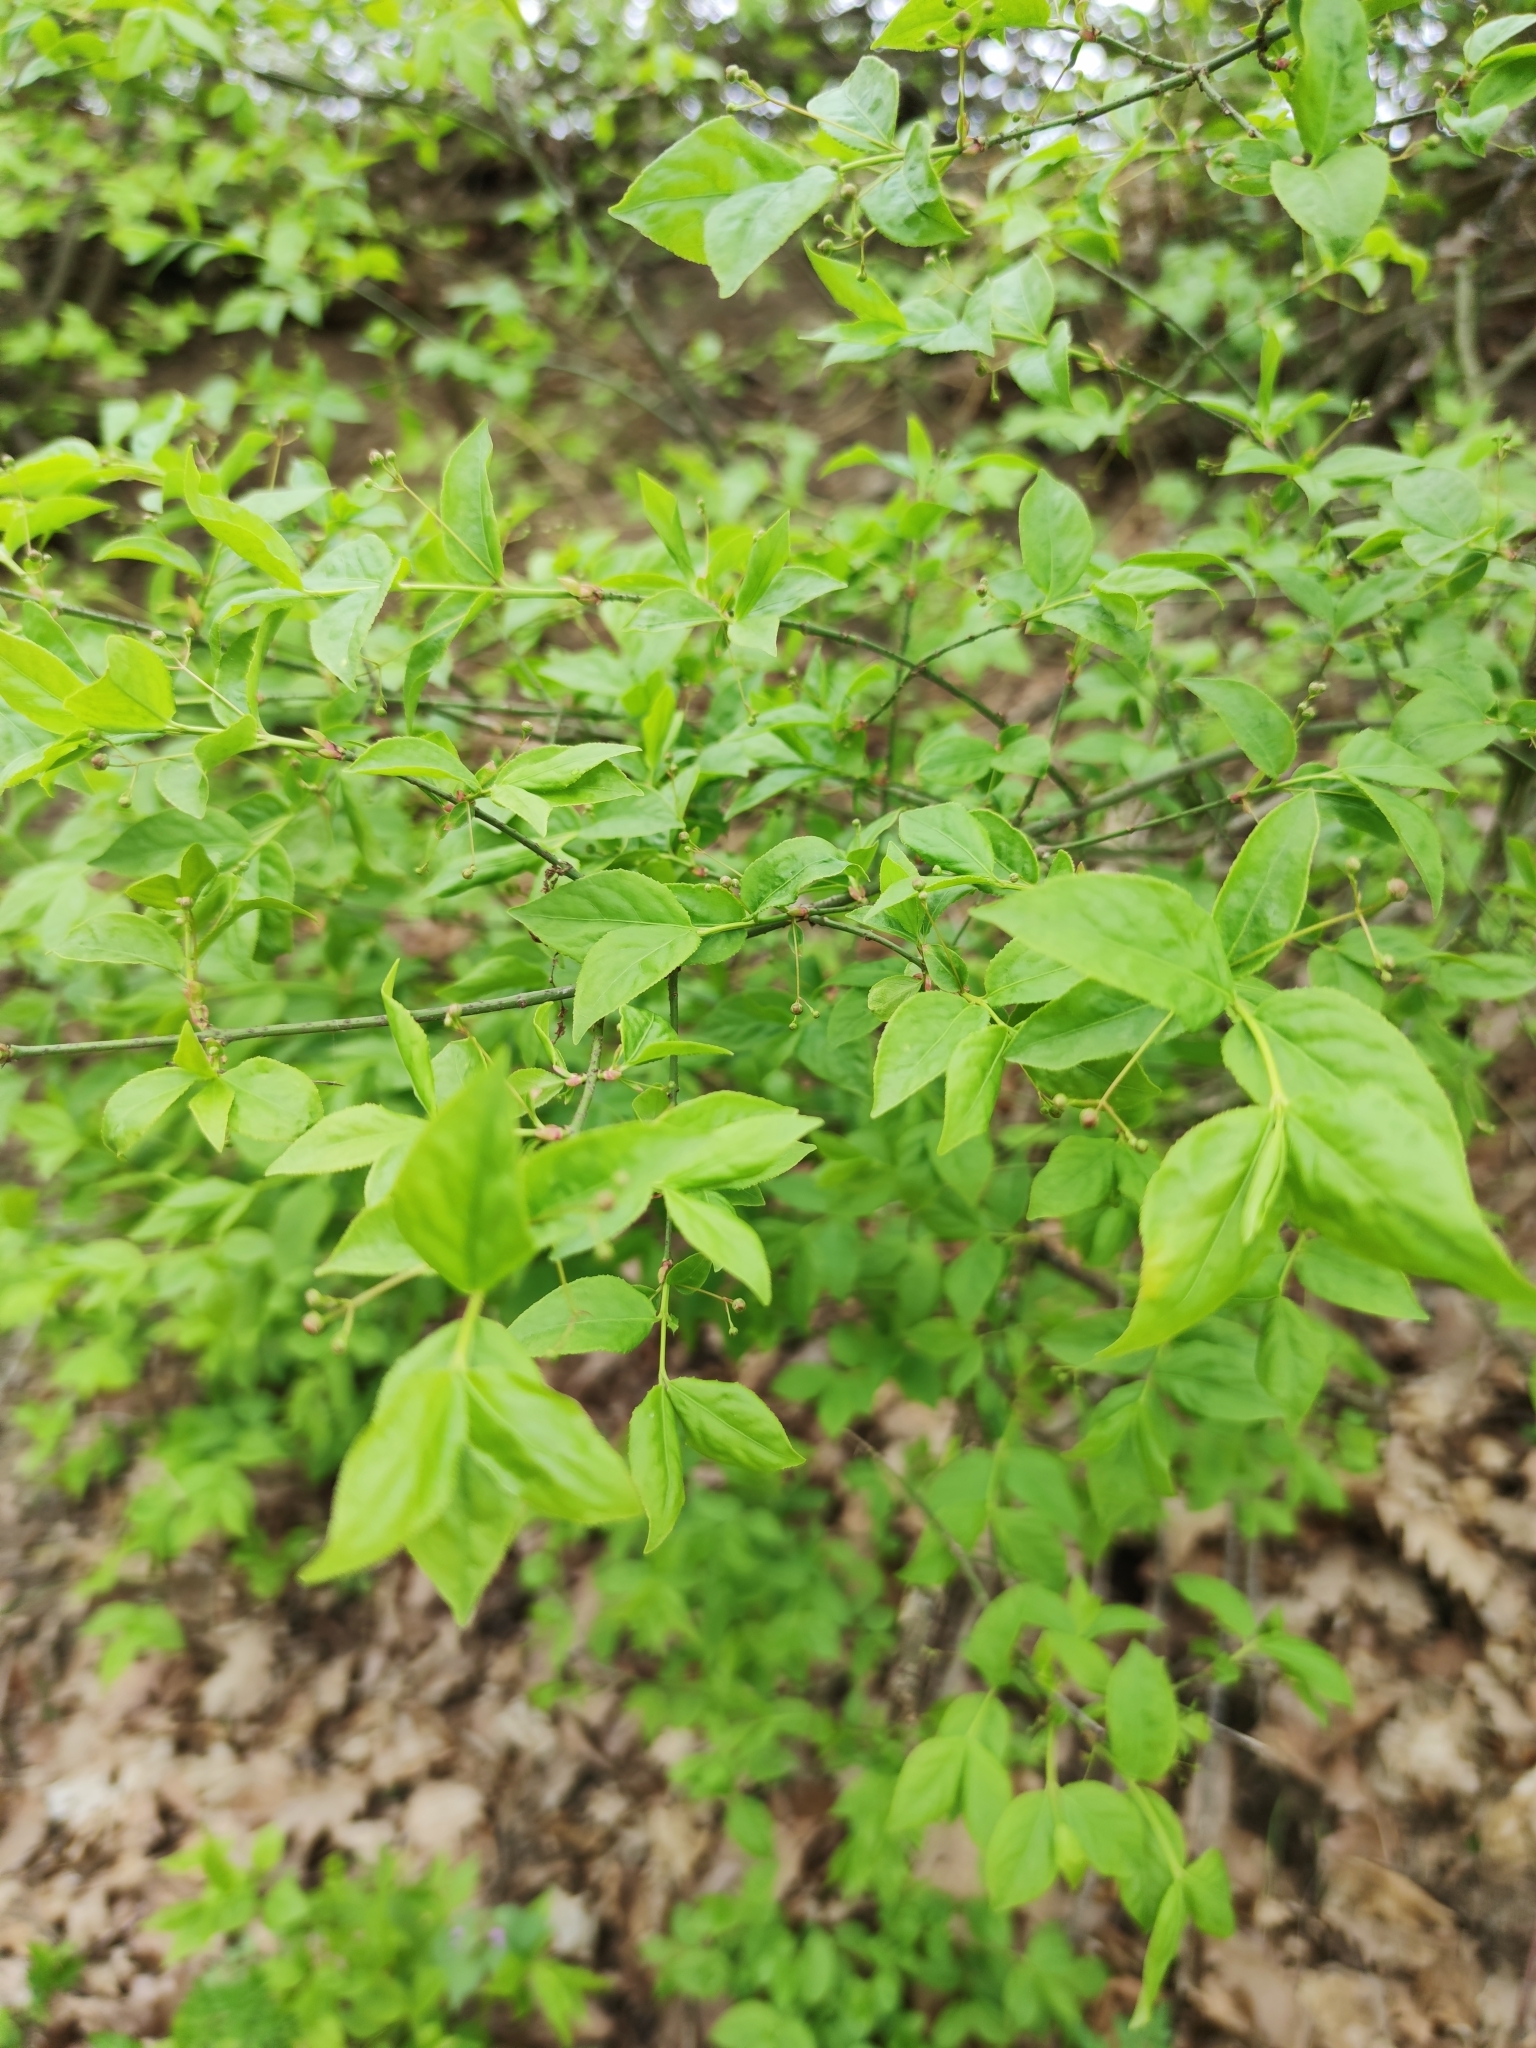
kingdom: Plantae
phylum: Tracheophyta
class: Magnoliopsida
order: Celastrales
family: Celastraceae
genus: Euonymus
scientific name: Euonymus verrucosus
